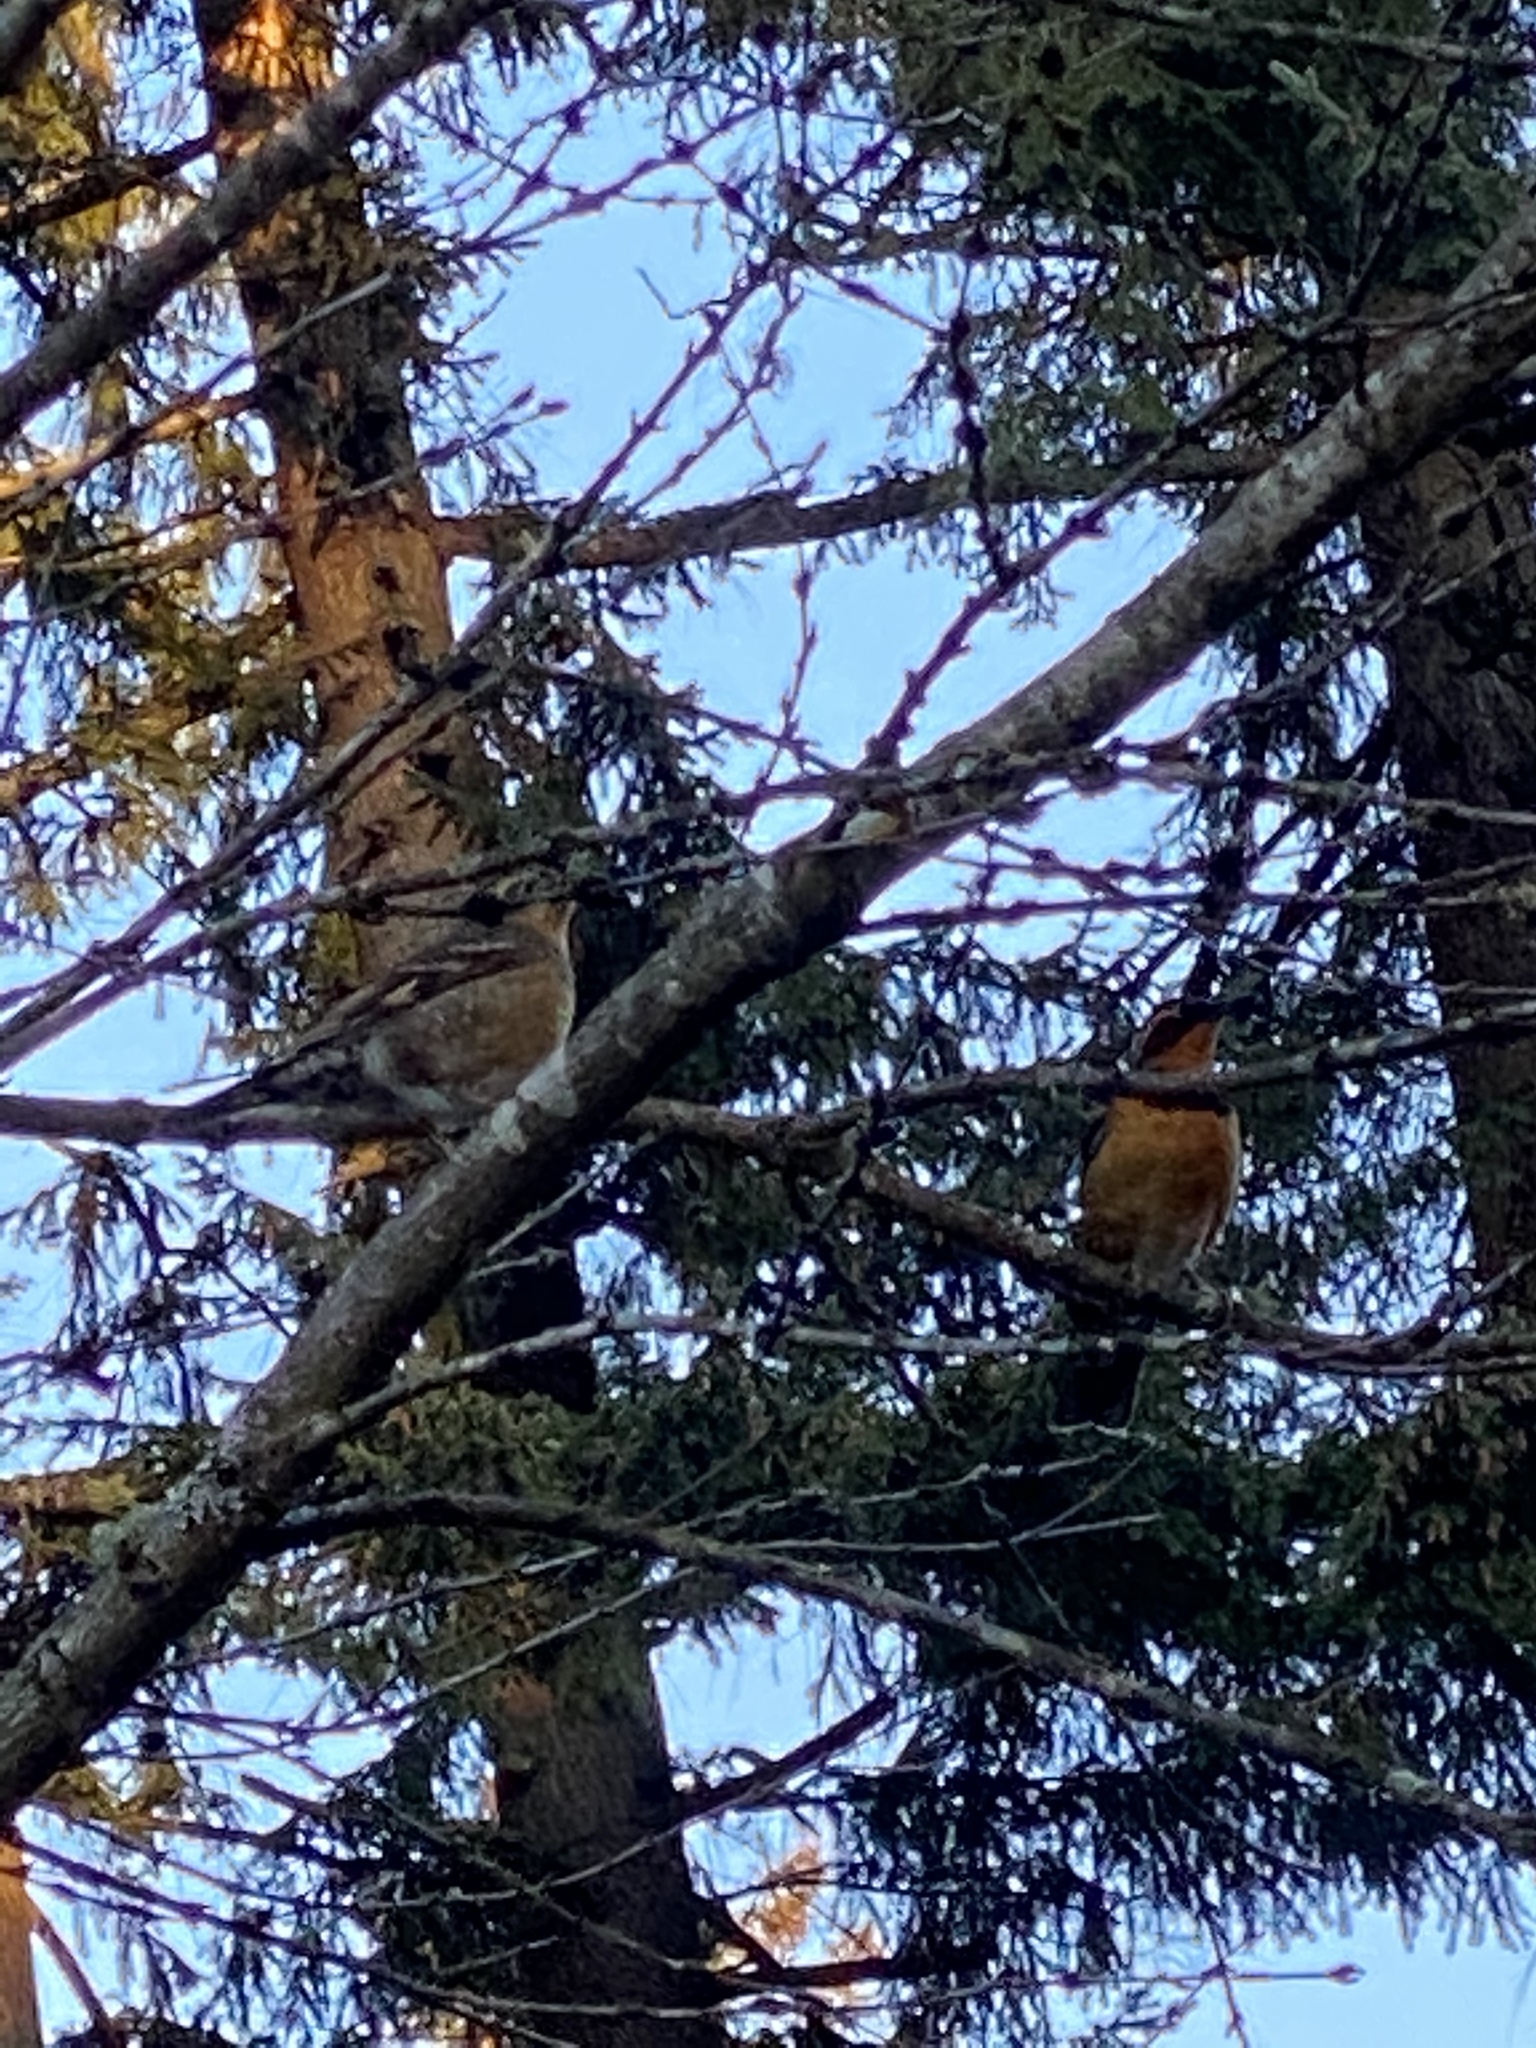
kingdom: Animalia
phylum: Chordata
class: Aves
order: Passeriformes
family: Turdidae
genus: Ixoreus
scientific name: Ixoreus naevius
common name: Varied thrush
